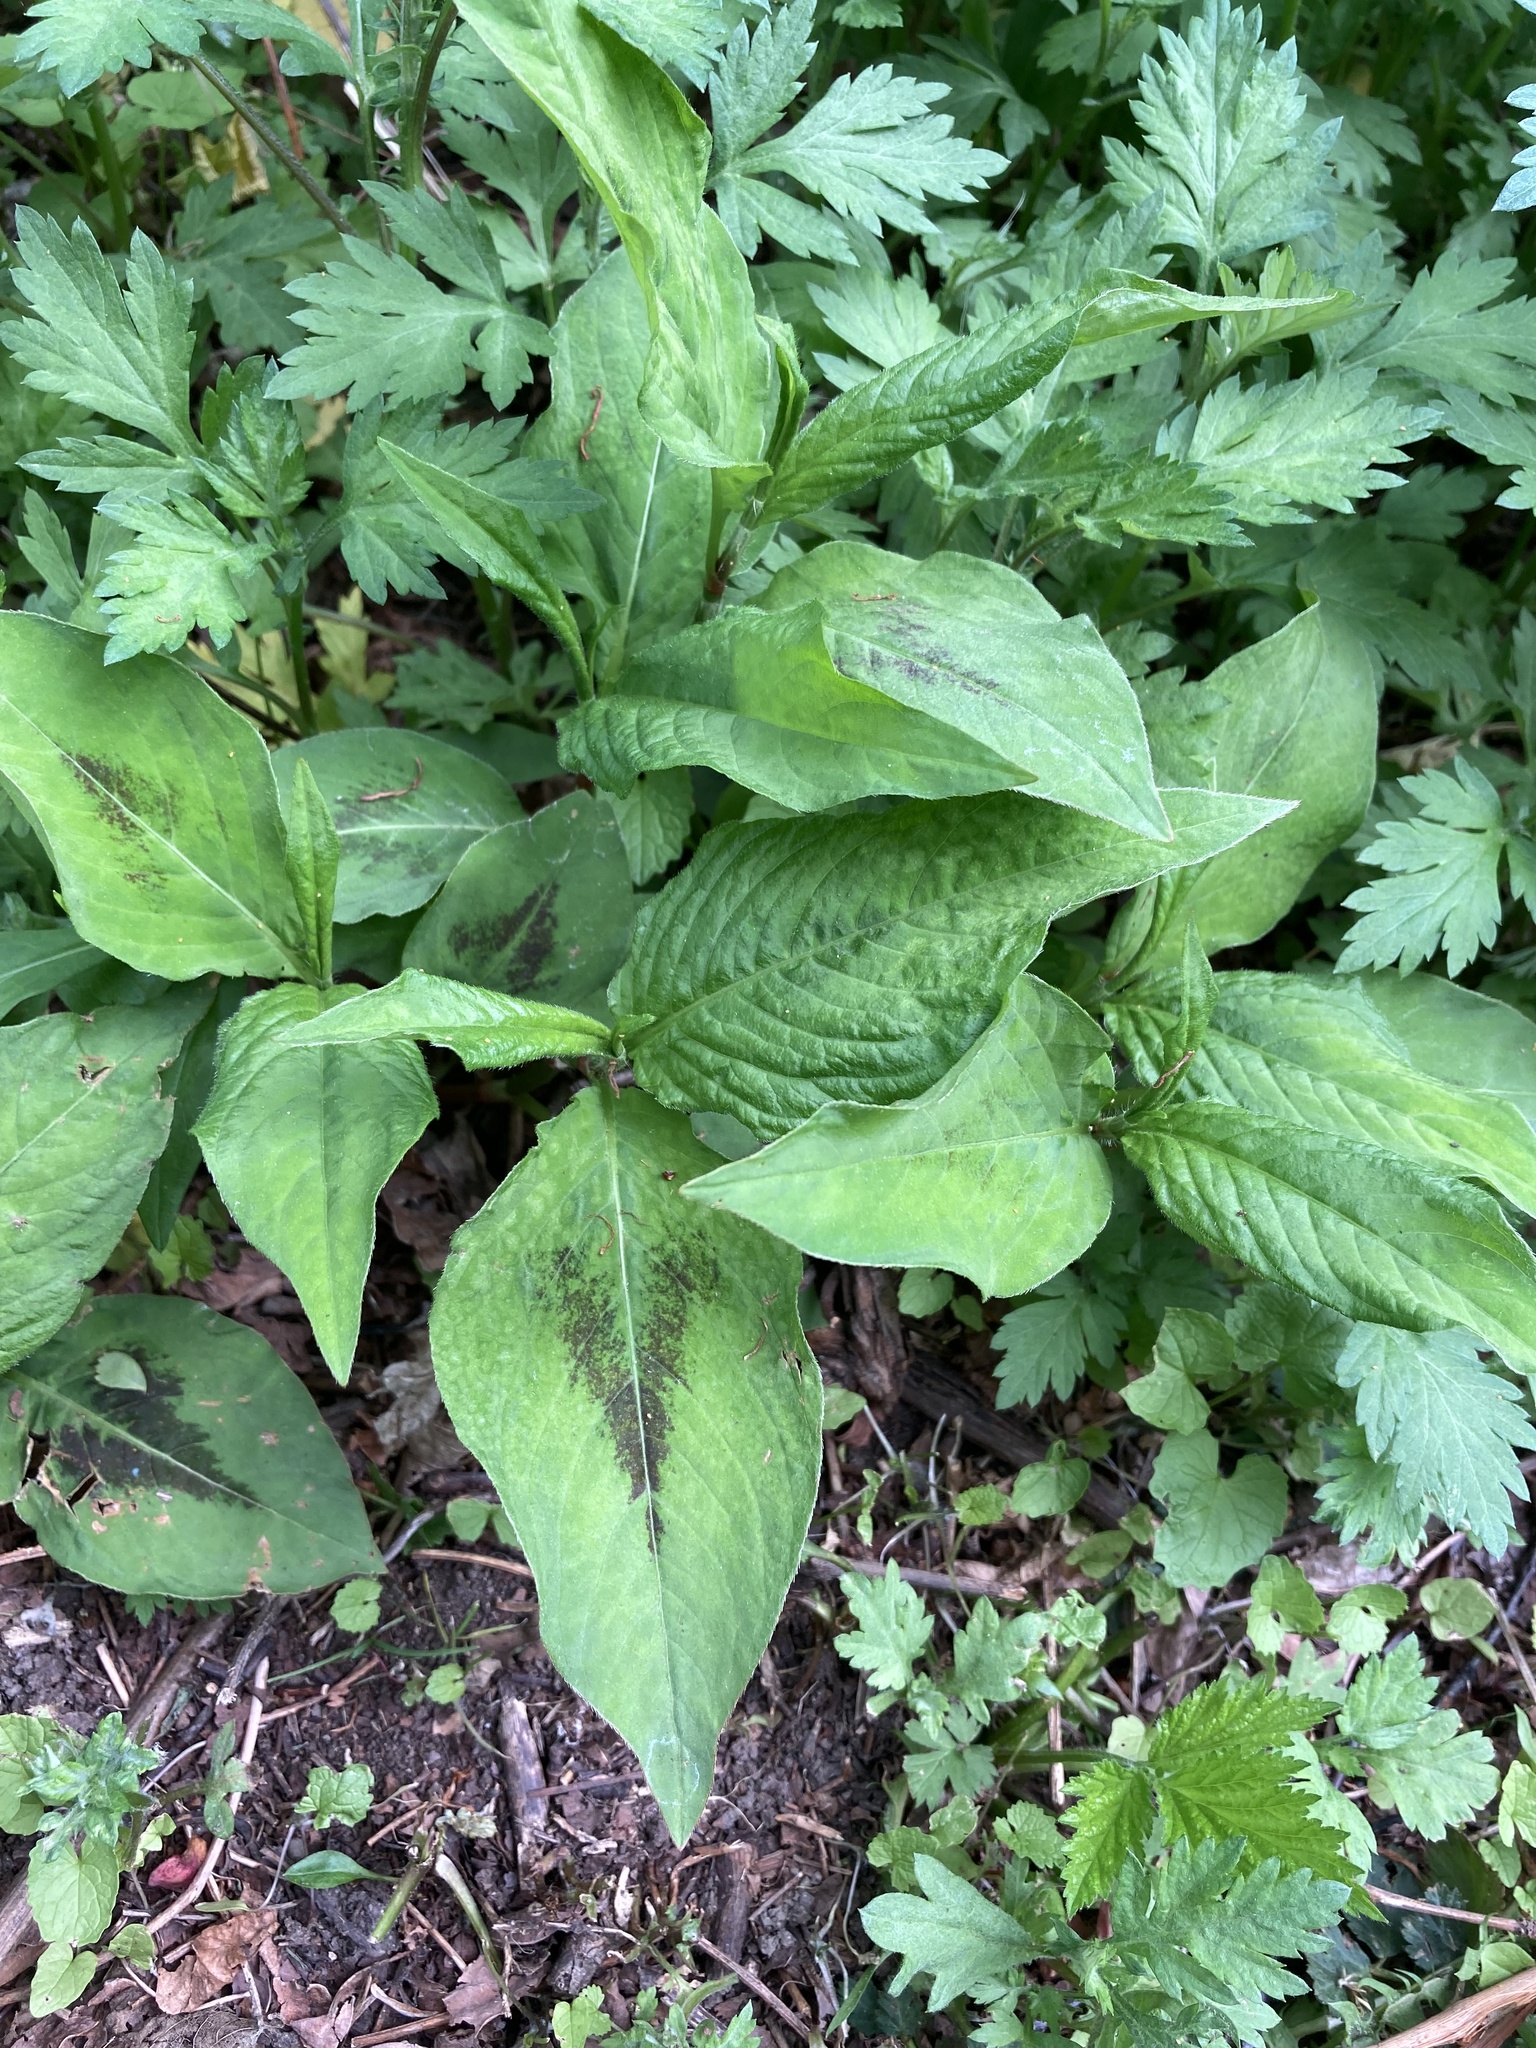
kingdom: Plantae
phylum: Tracheophyta
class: Magnoliopsida
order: Caryophyllales
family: Polygonaceae
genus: Persicaria
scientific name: Persicaria virginiana
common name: Jumpseed
